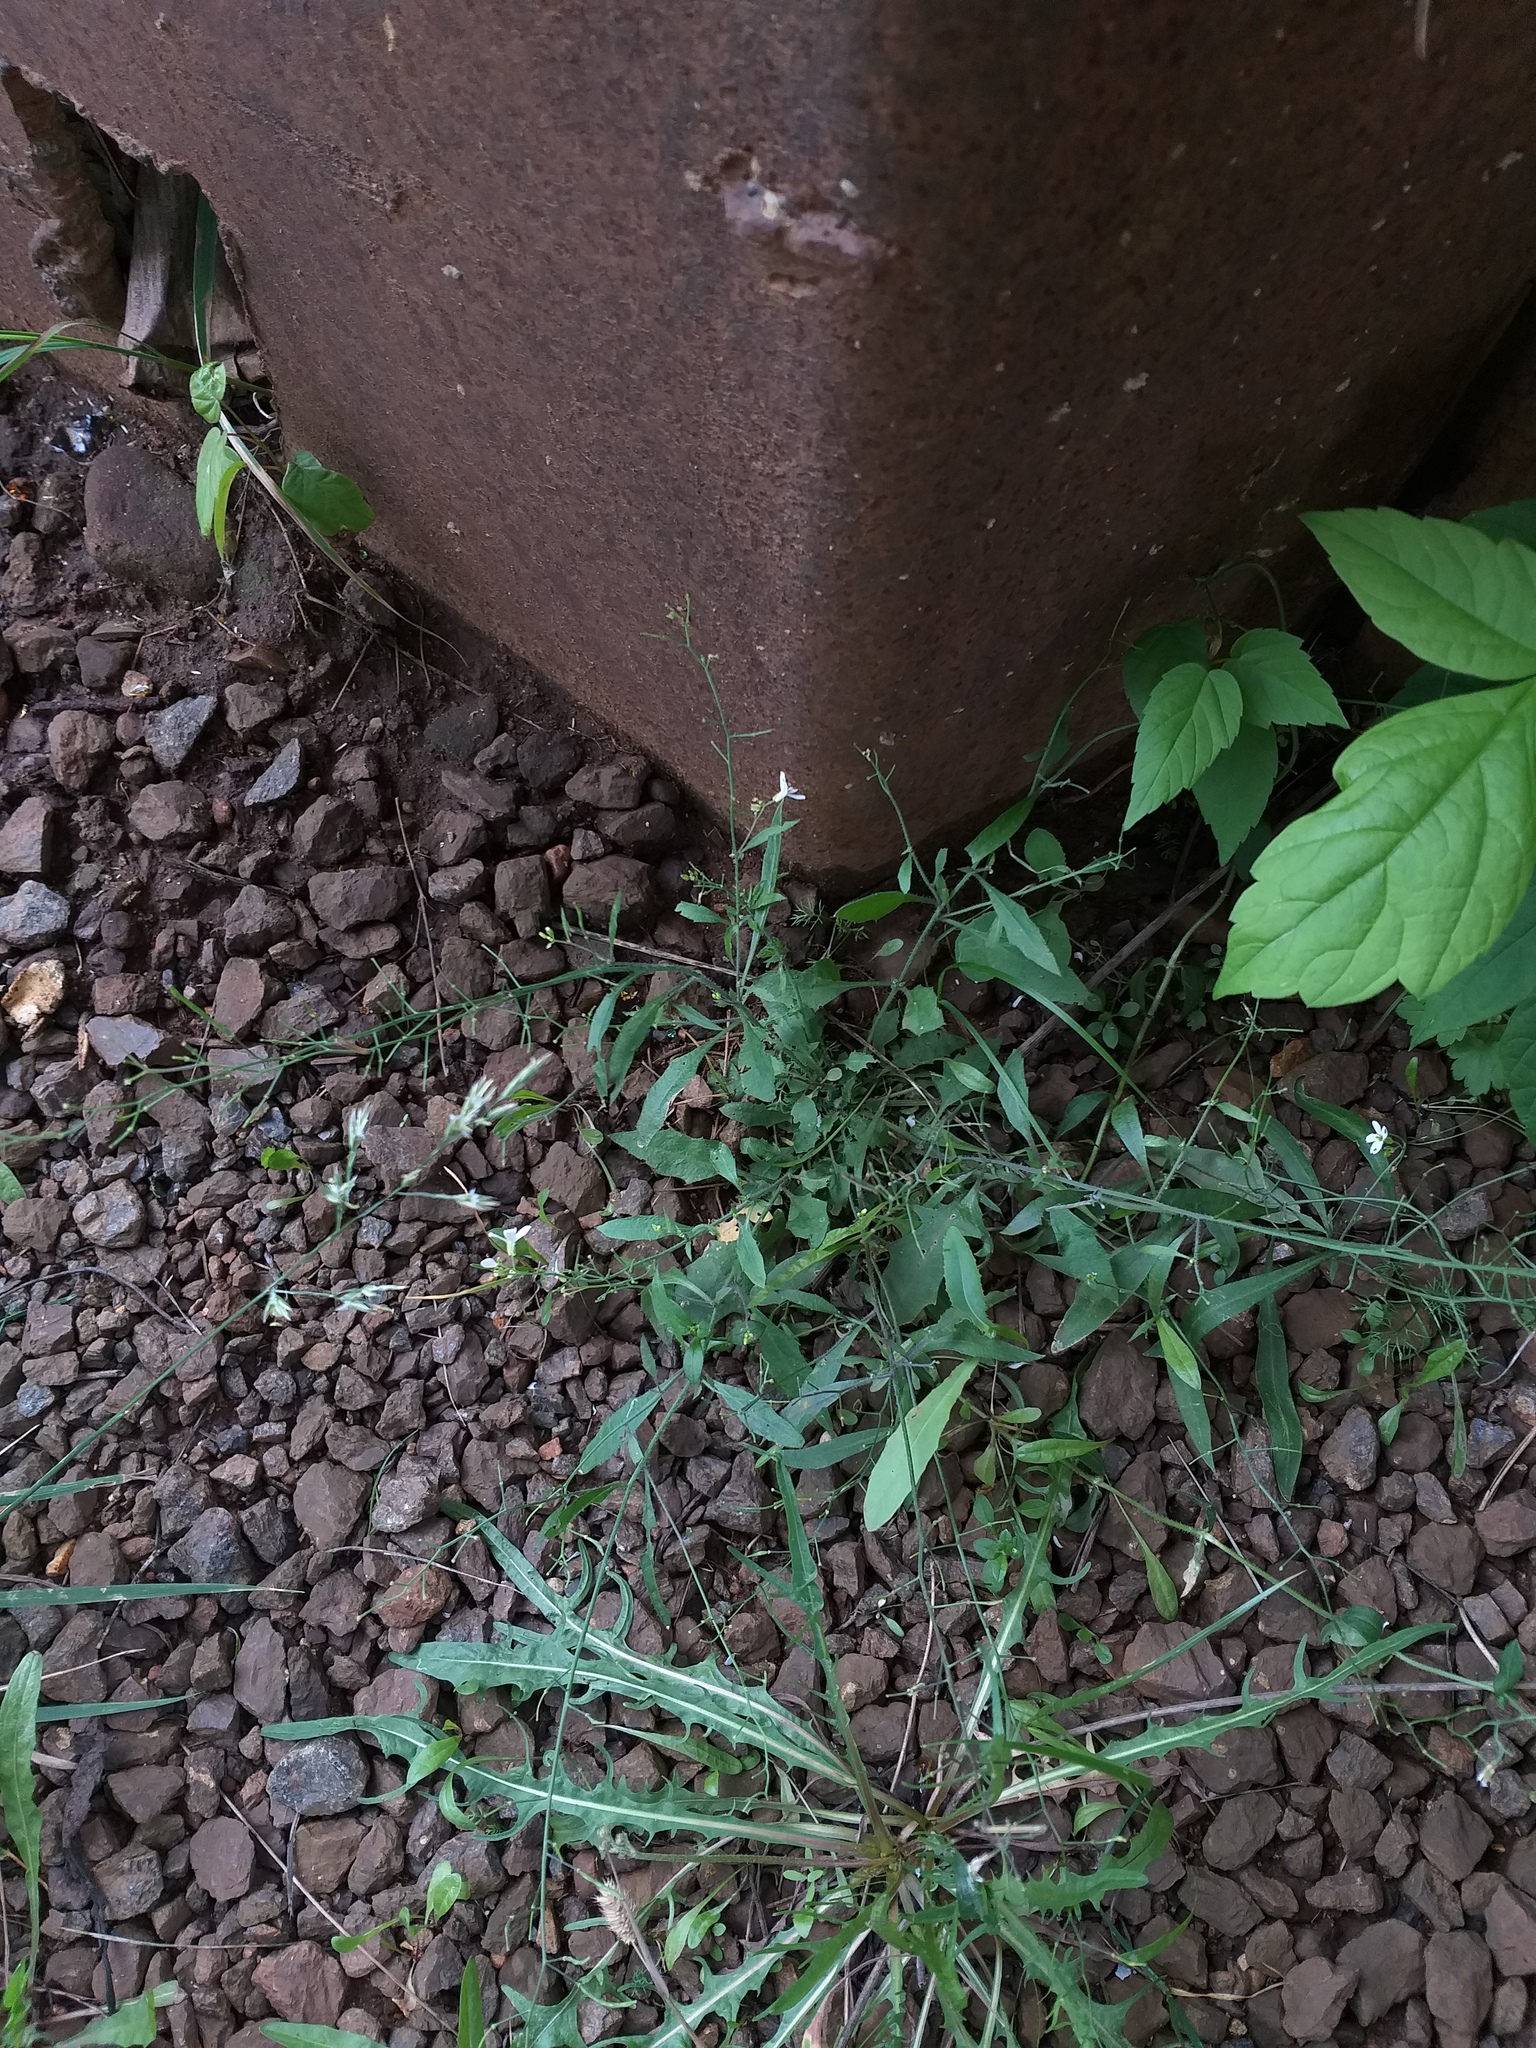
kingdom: Plantae
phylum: Tracheophyta
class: Magnoliopsida
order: Brassicales
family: Brassicaceae
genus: Arabidopsis
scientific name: Arabidopsis arenosa
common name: Sand rock-cress
